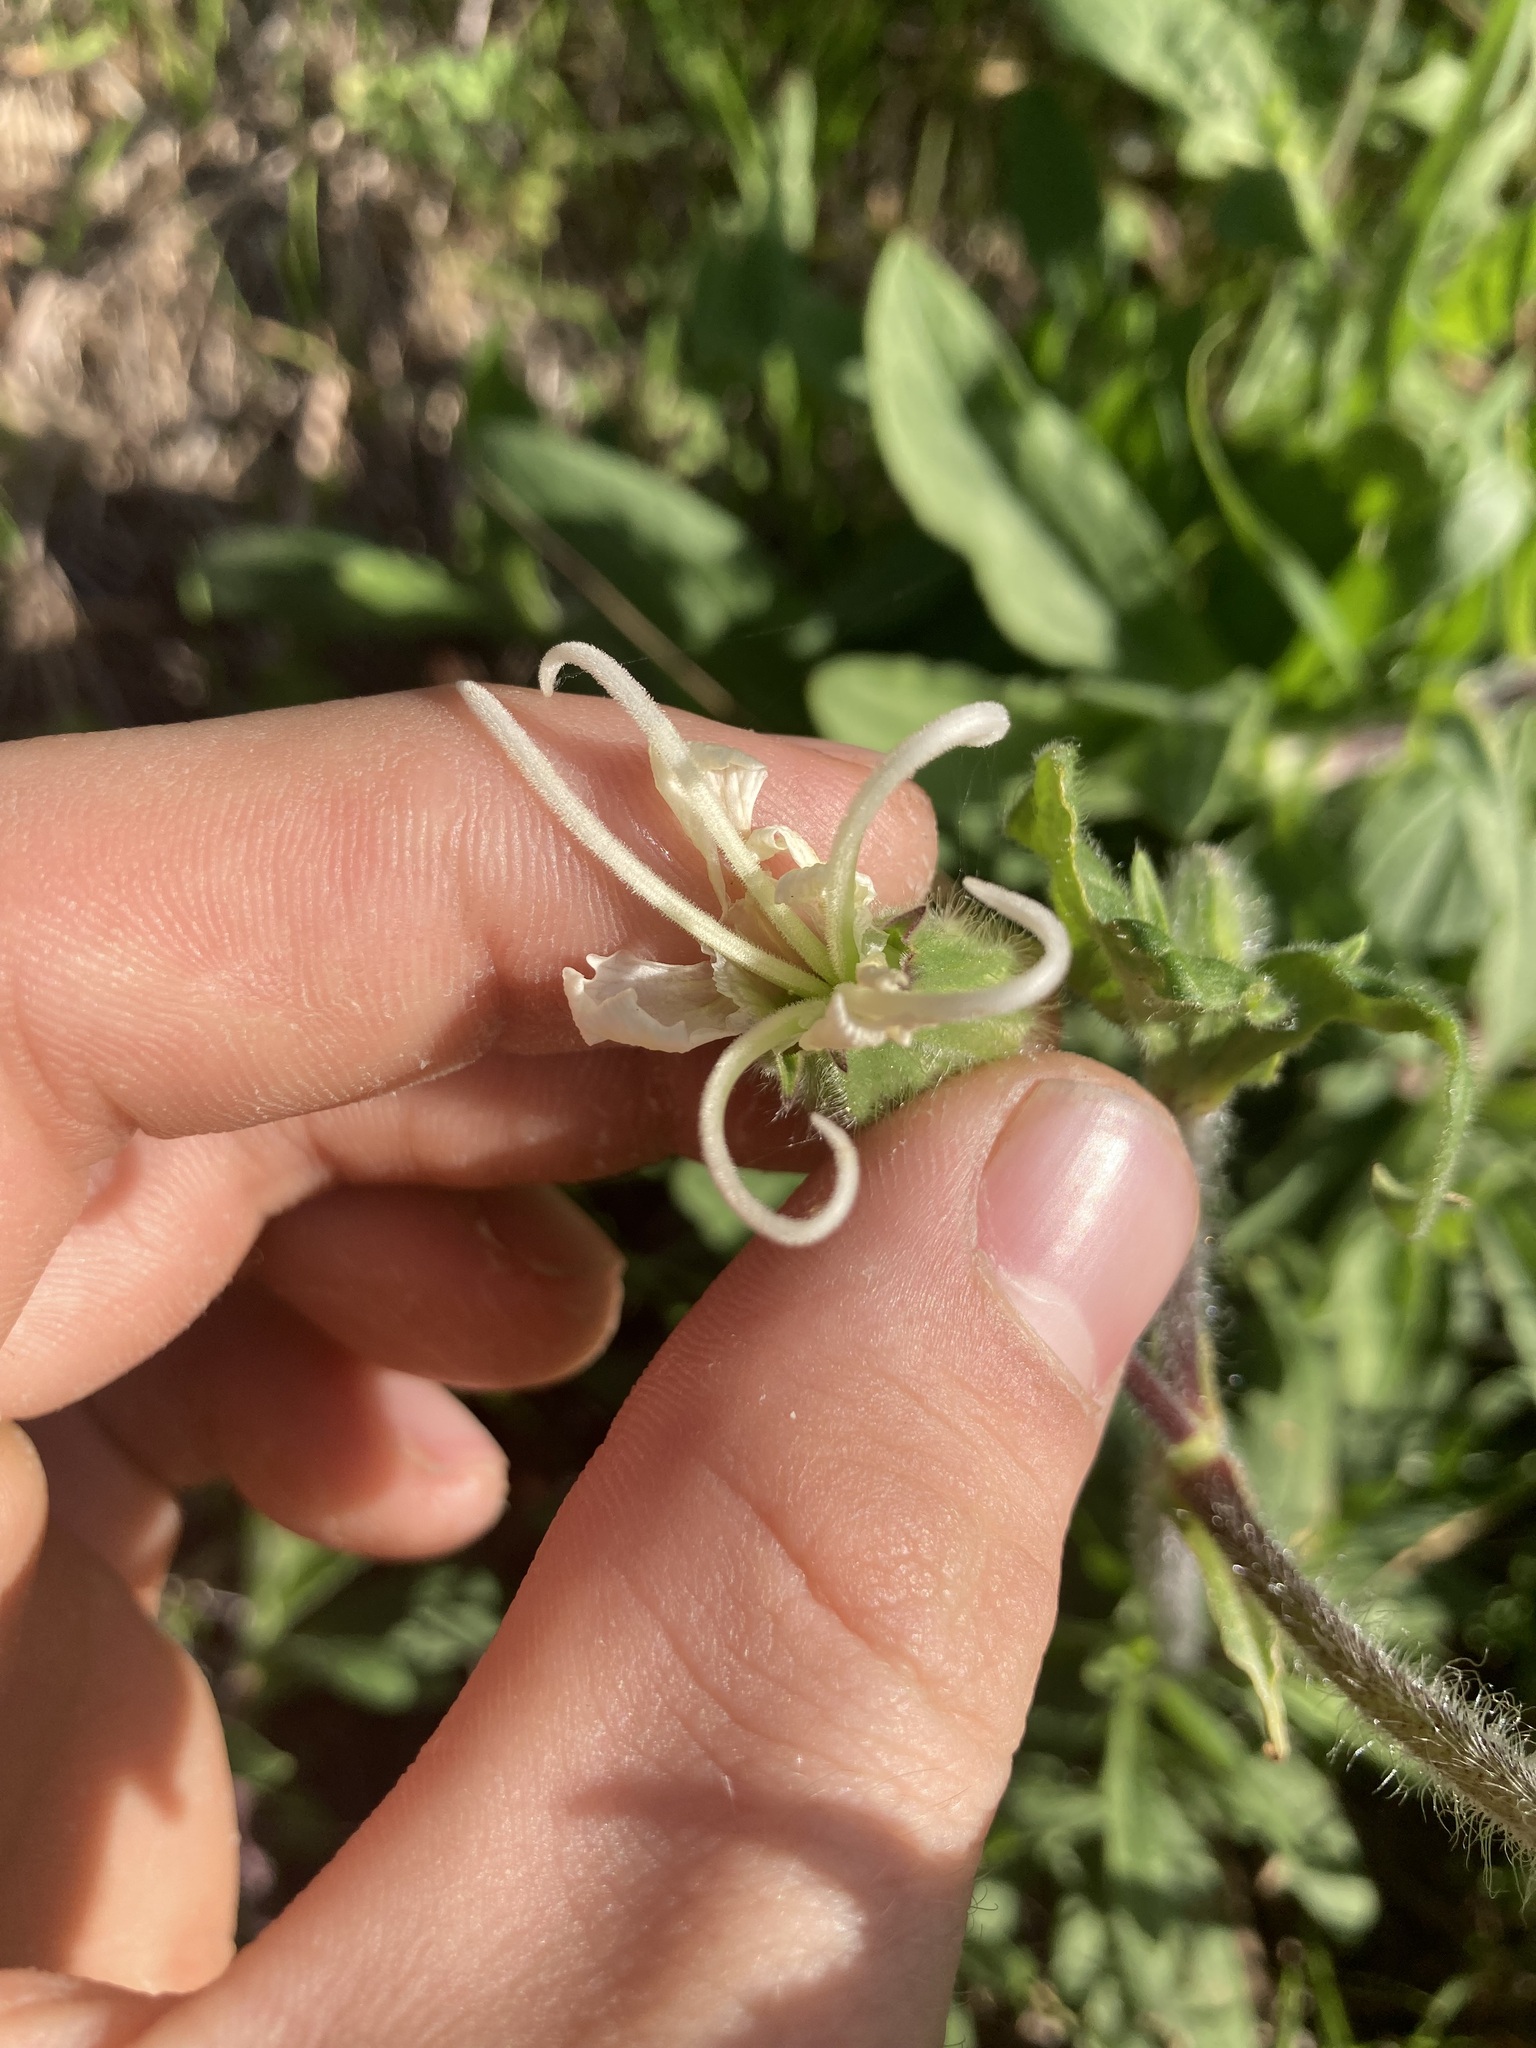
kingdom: Plantae
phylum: Tracheophyta
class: Magnoliopsida
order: Caryophyllales
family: Caryophyllaceae
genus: Silene
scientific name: Silene latifolia
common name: White campion
